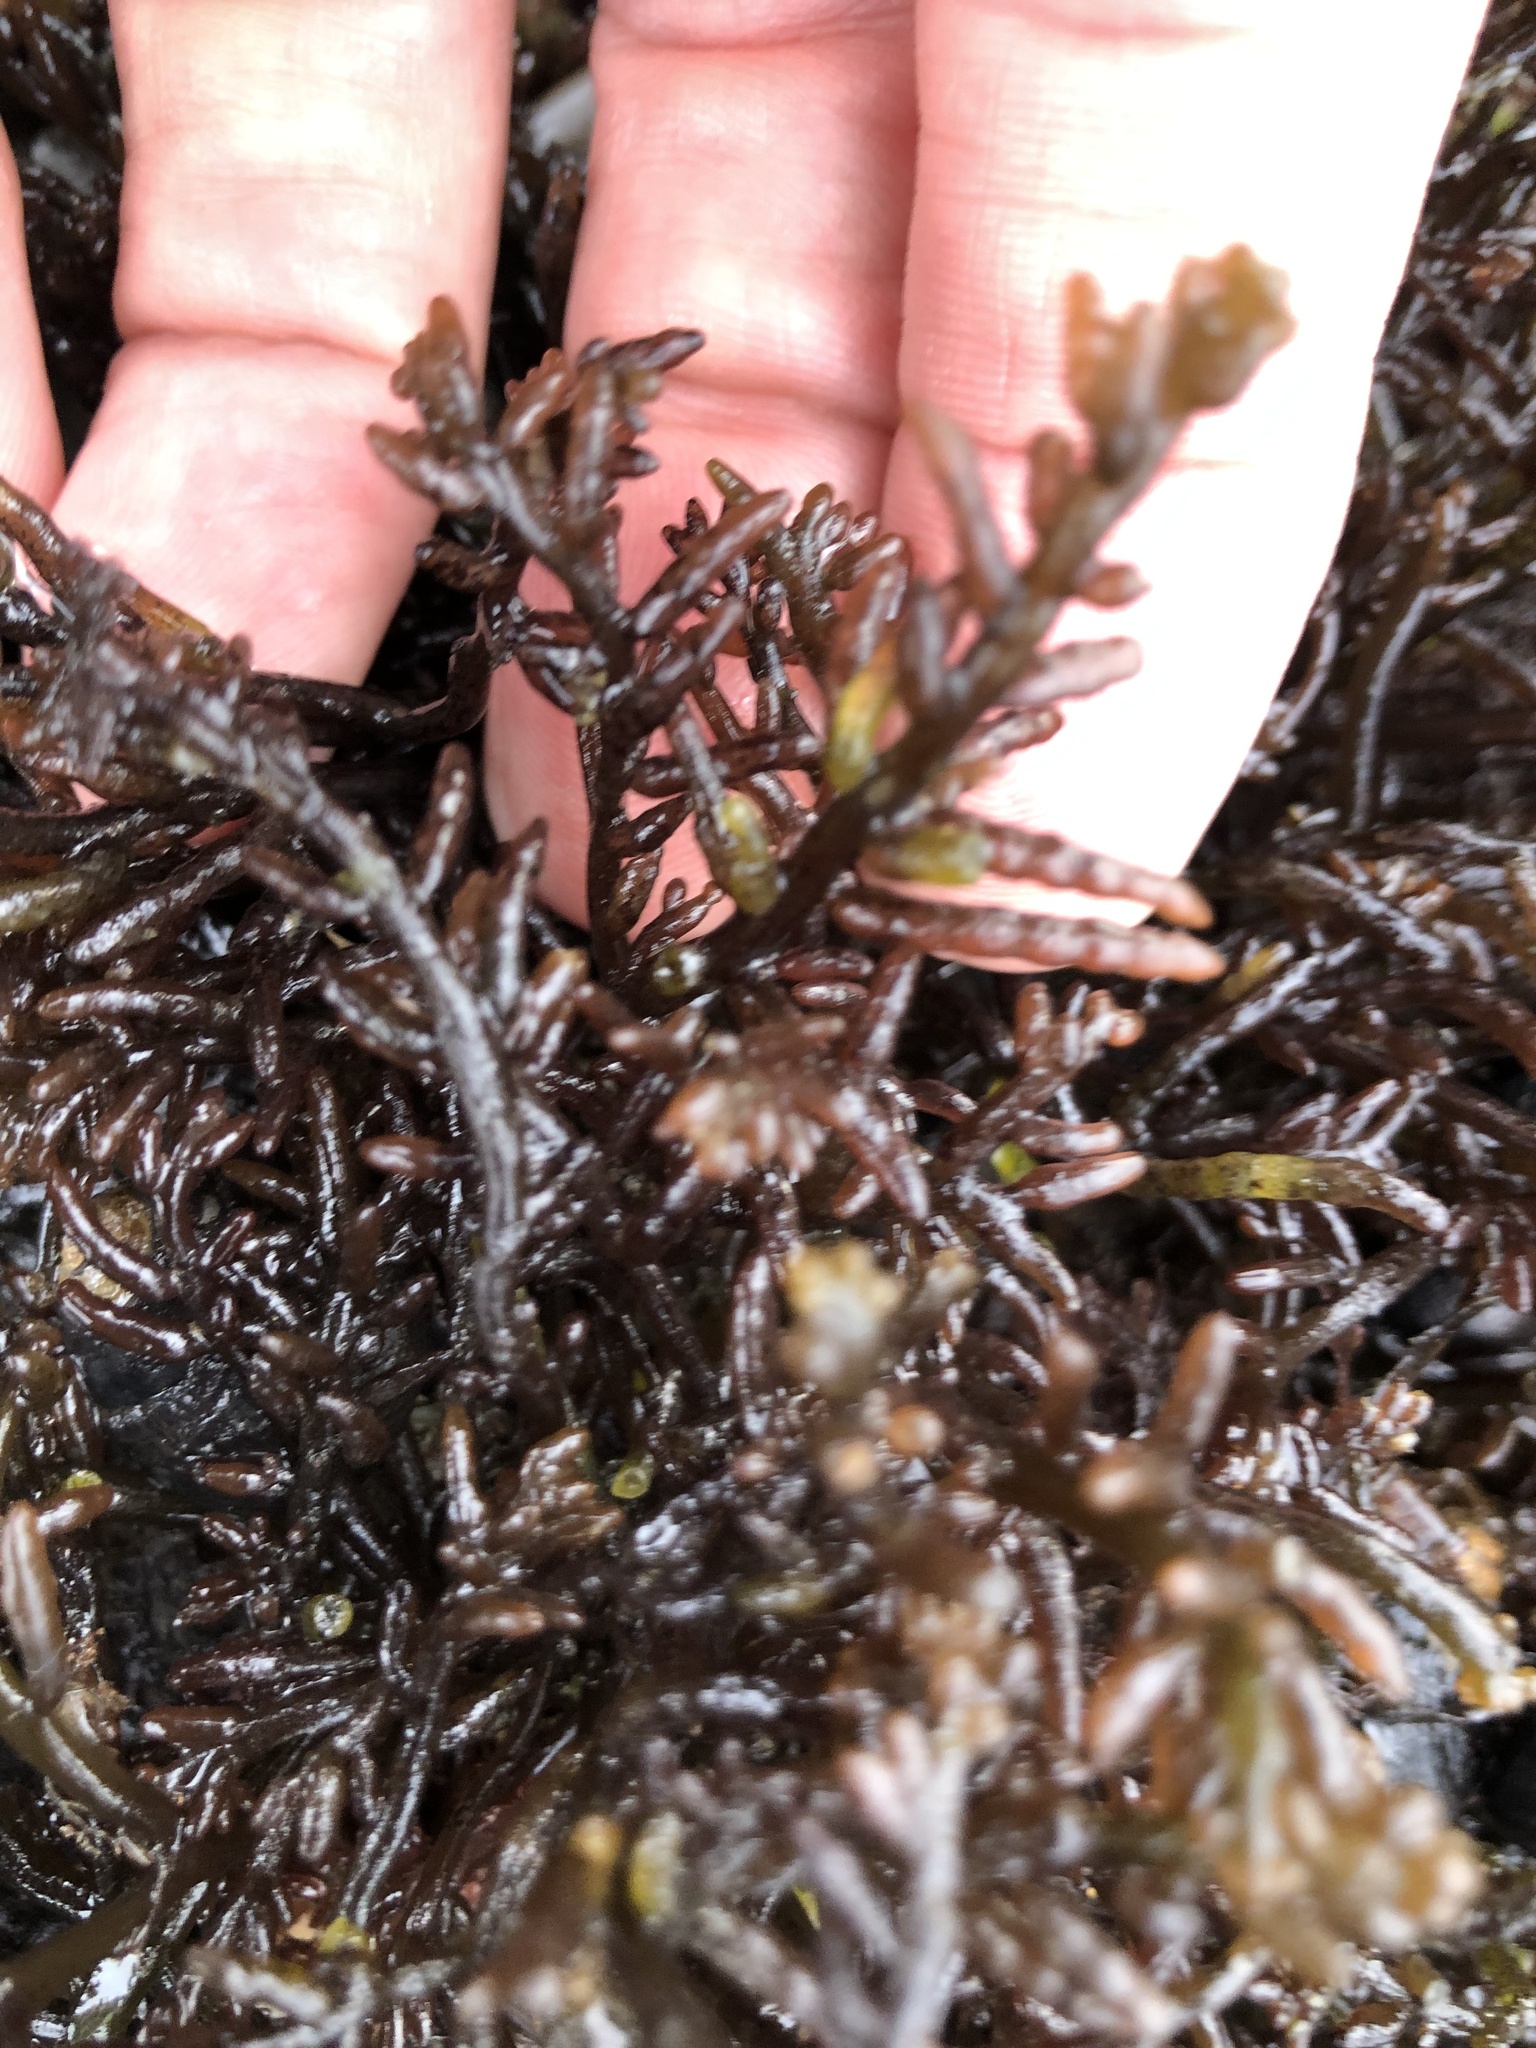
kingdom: Plantae
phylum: Rhodophyta
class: Florideophyceae
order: Rhodymeniales
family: Champiaceae
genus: Neogastroclonium
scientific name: Neogastroclonium subarticulatum
